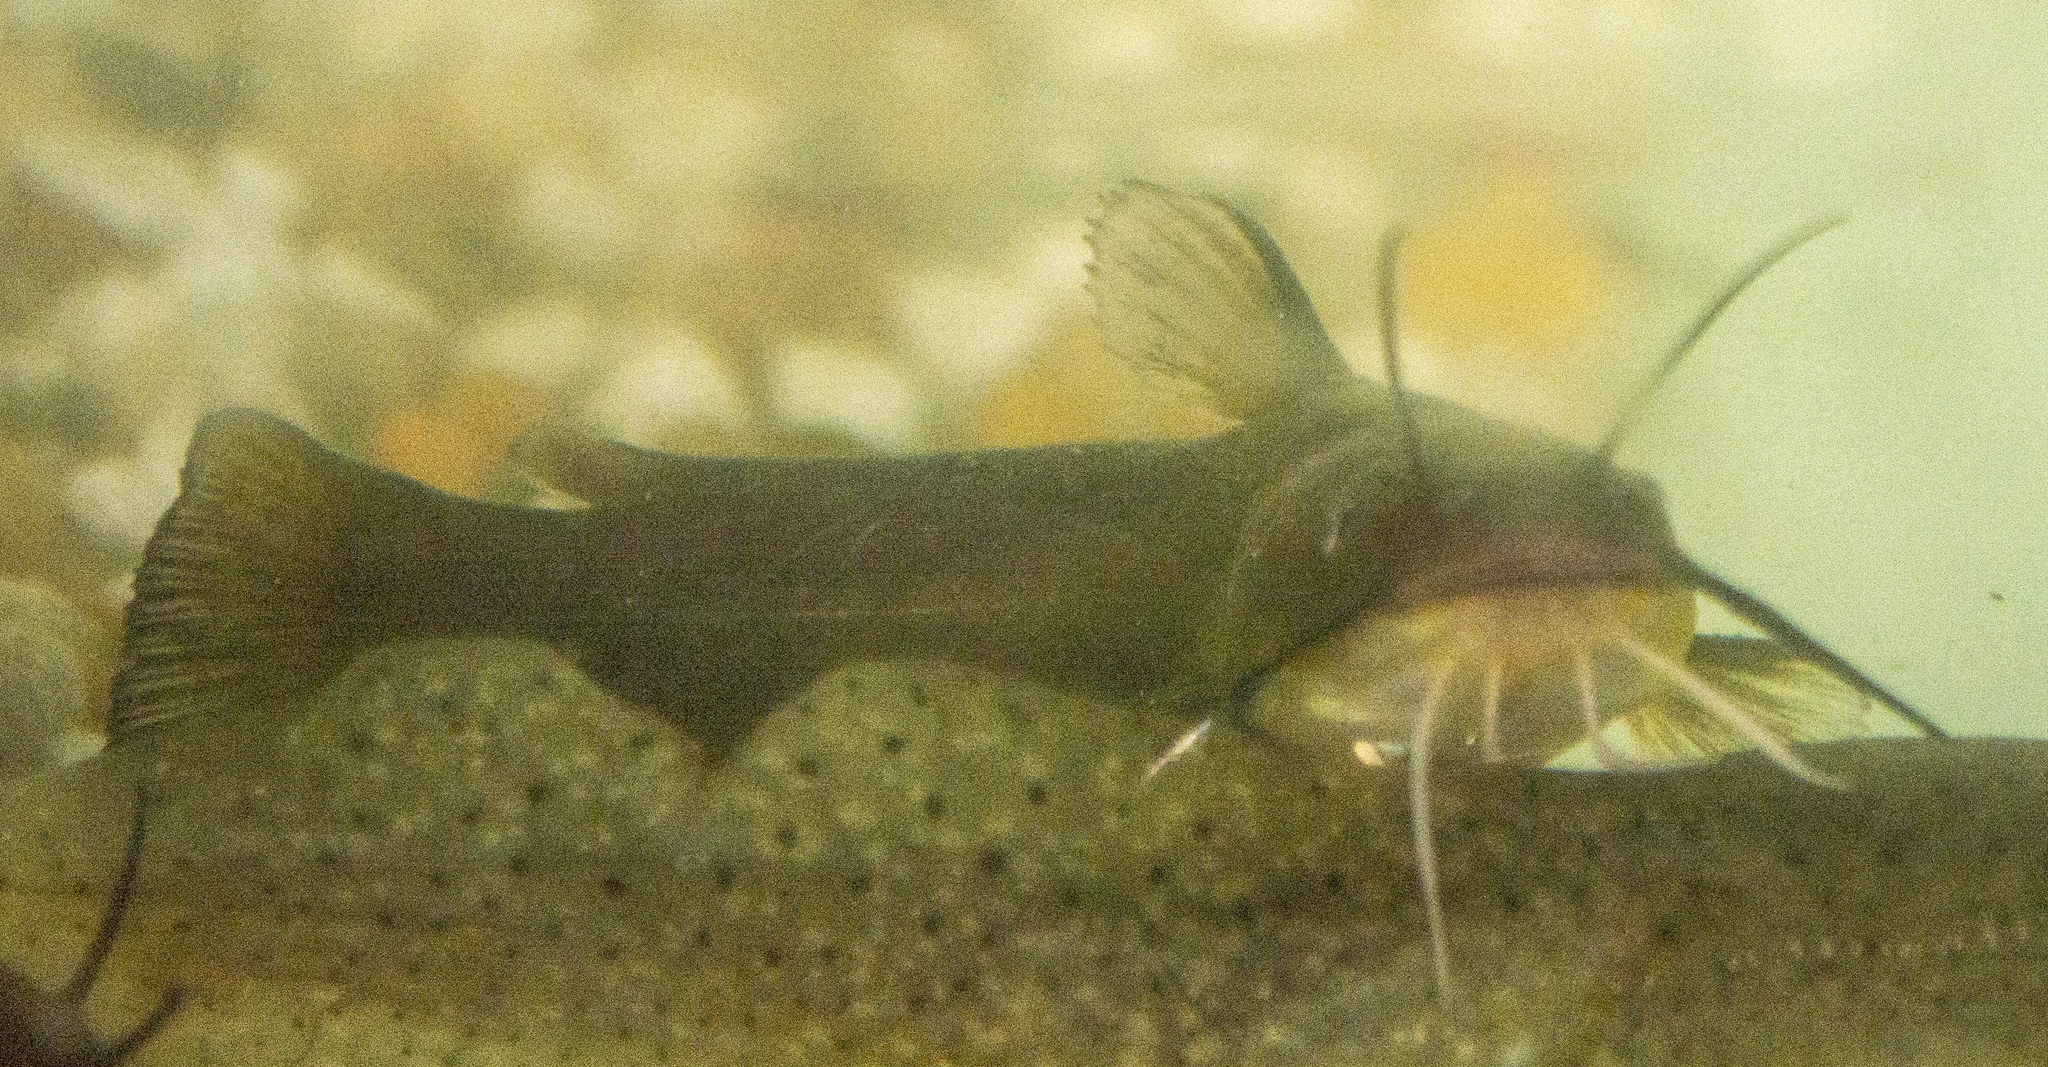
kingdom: Animalia
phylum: Chordata
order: Siluriformes
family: Ictaluridae
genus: Ameiurus
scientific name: Ameiurus natalis
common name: Yellow bullhead
